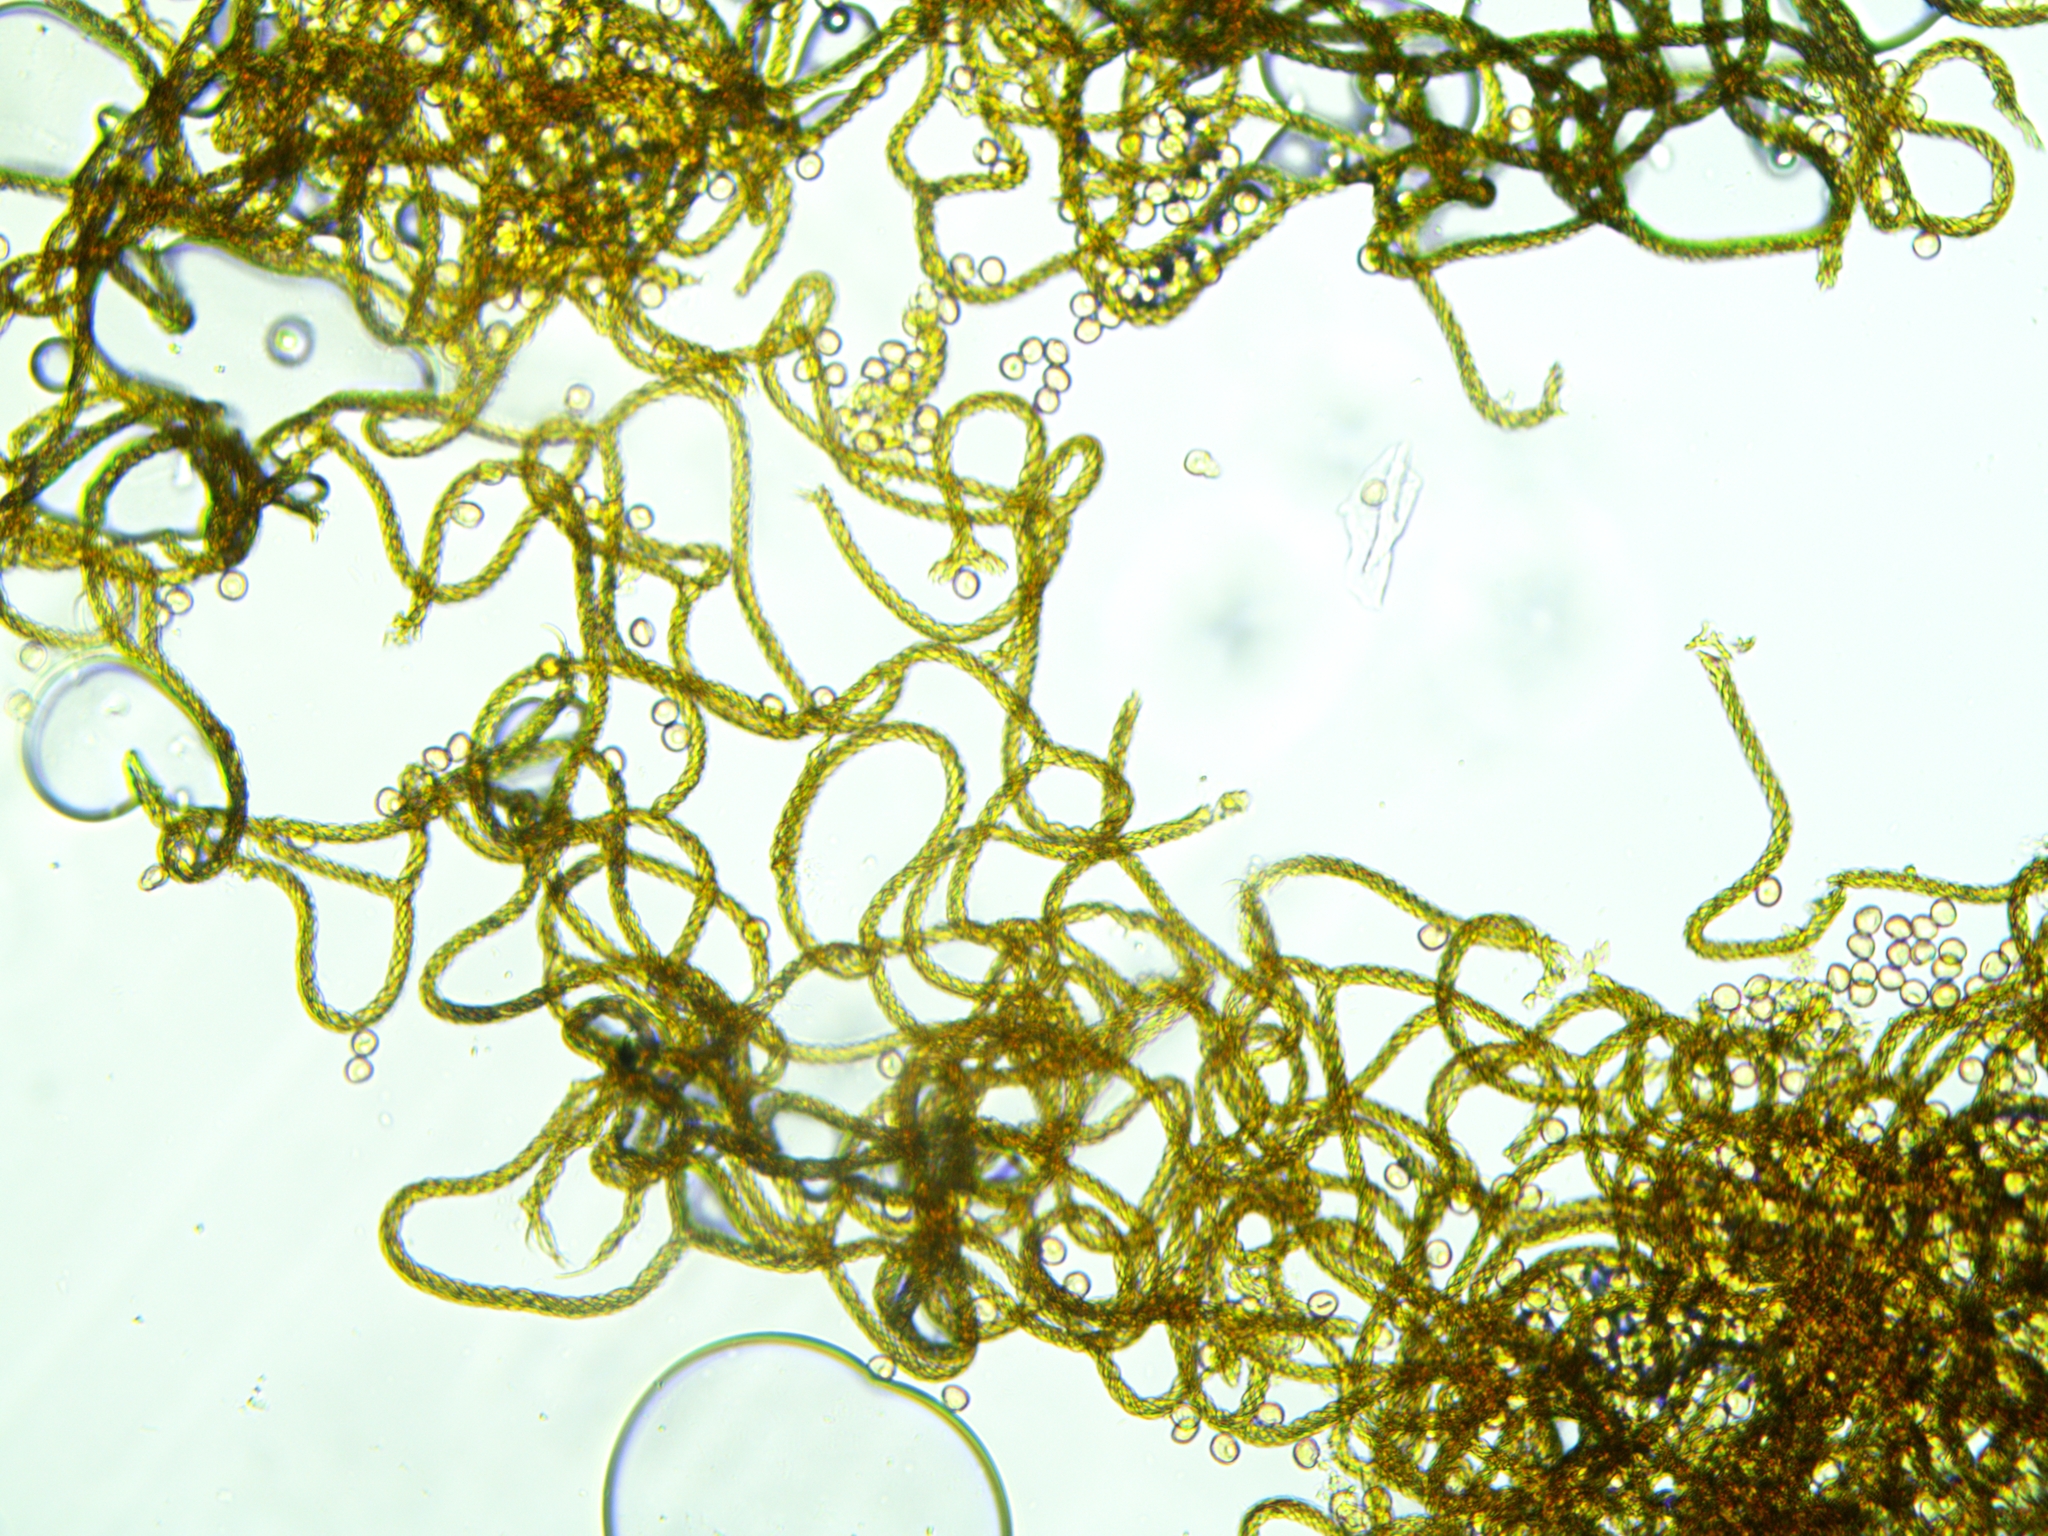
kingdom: Protozoa
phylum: Mycetozoa
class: Myxomycetes
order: Trichiales
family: Arcyriaceae
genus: Hemitrichia
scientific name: Hemitrichia calyculata
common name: Push pin slime mold
